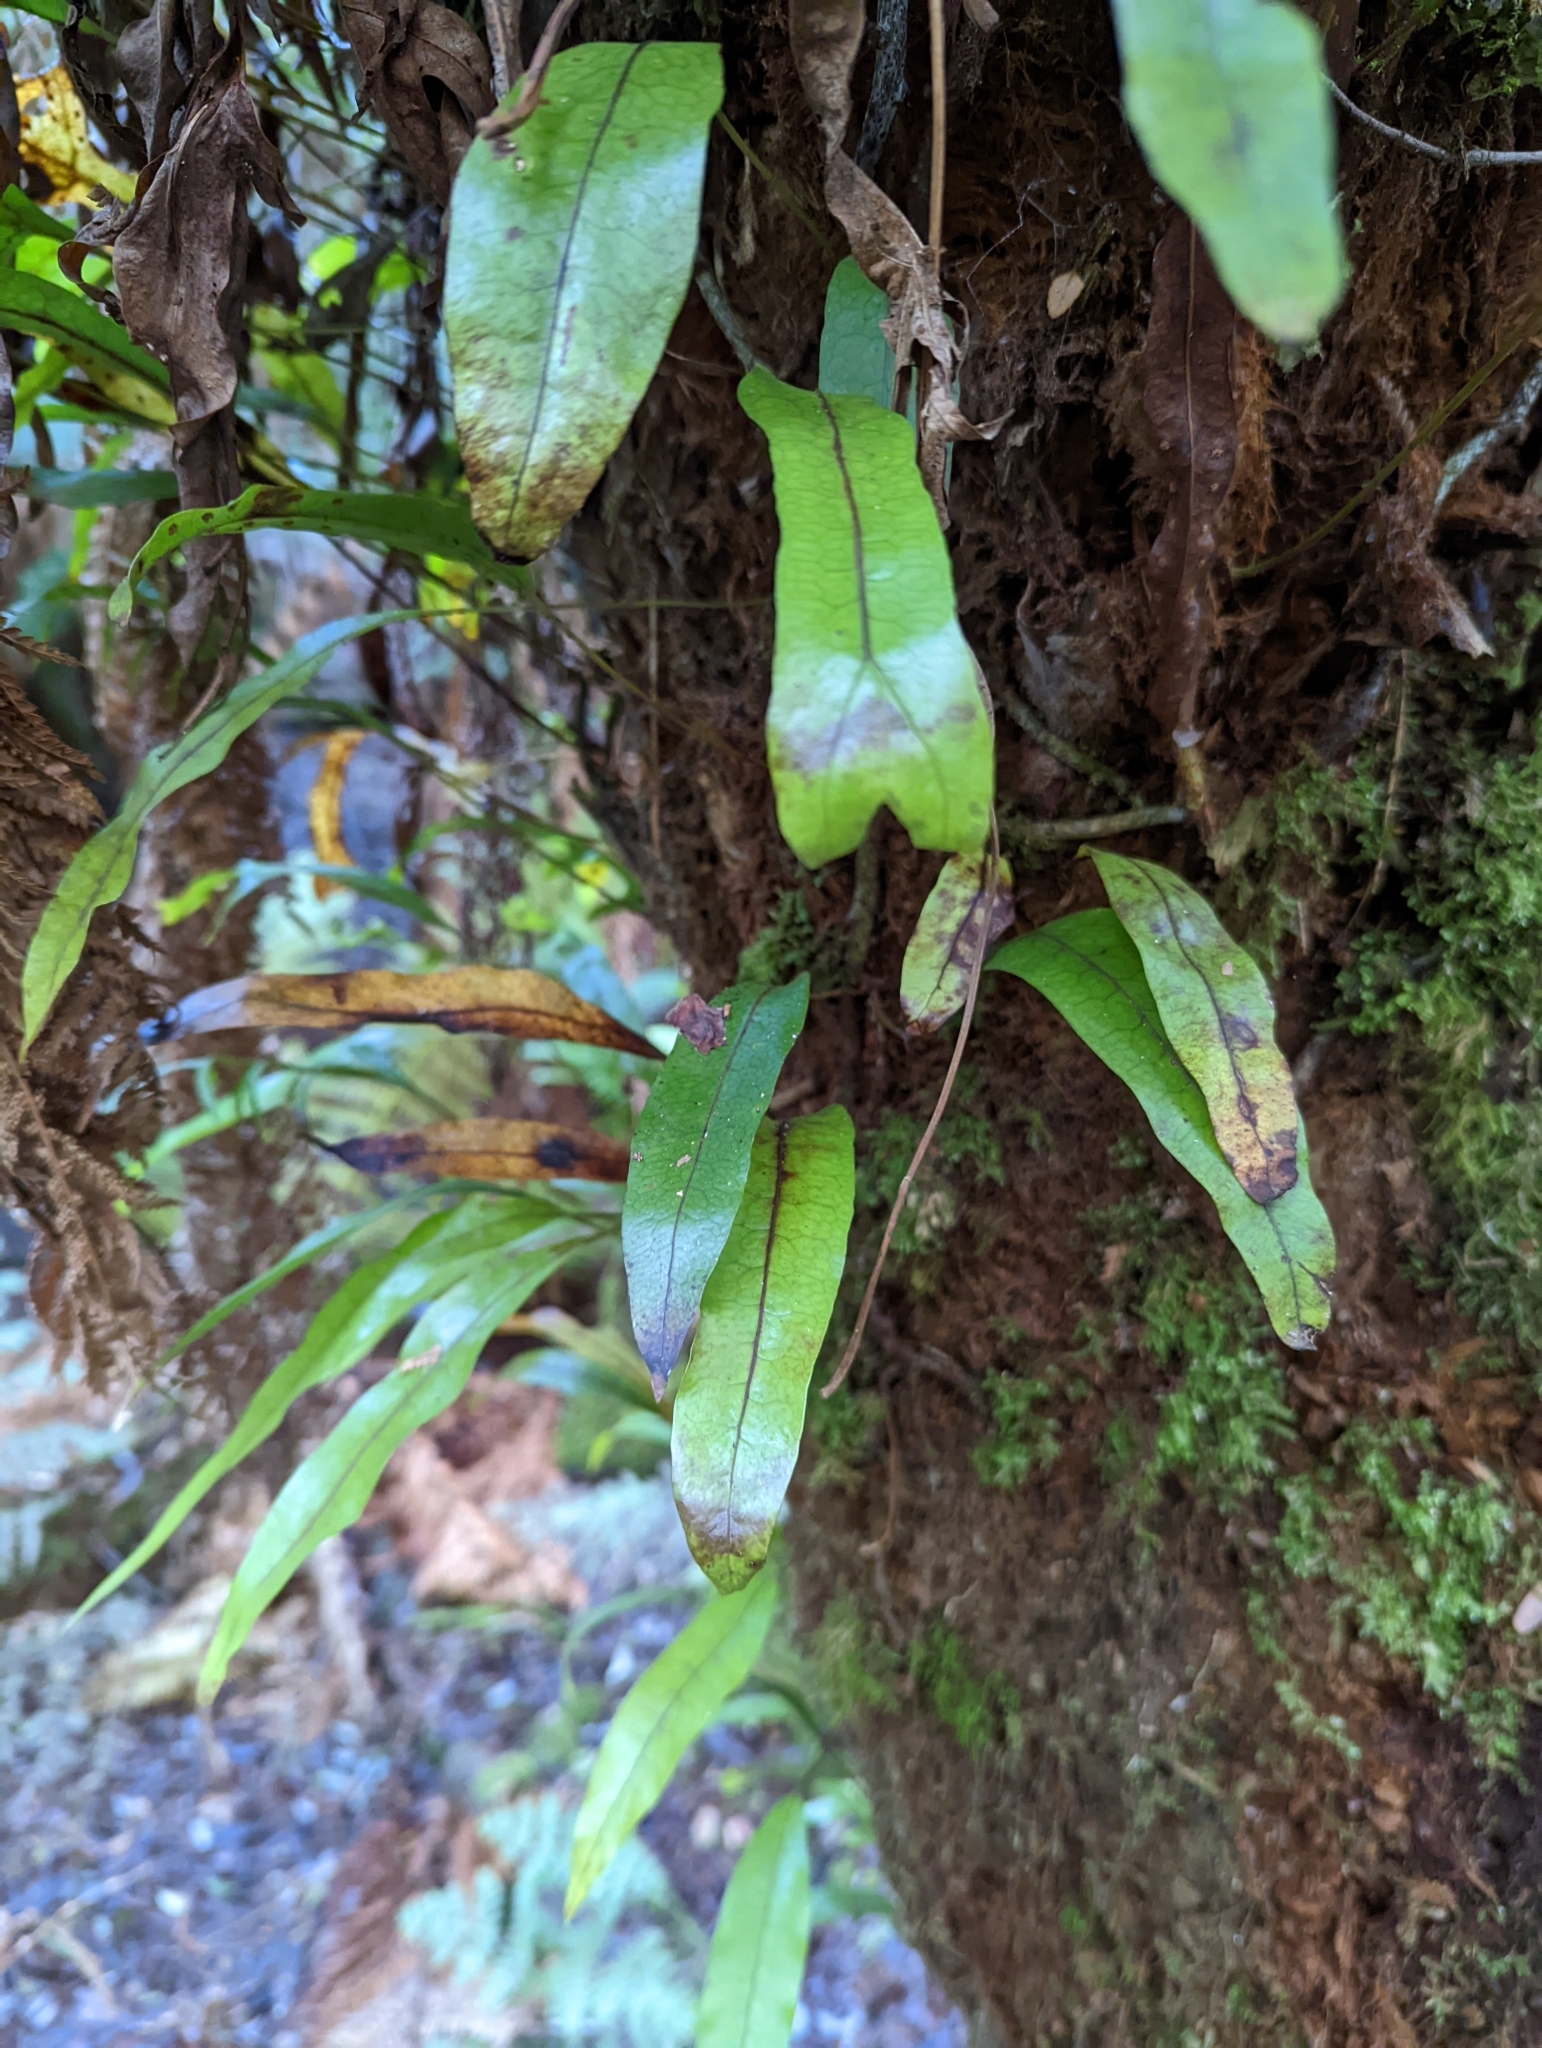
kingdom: Plantae
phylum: Tracheophyta
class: Polypodiopsida
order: Polypodiales
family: Polypodiaceae
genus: Lecanopteris
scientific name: Lecanopteris pustulata
